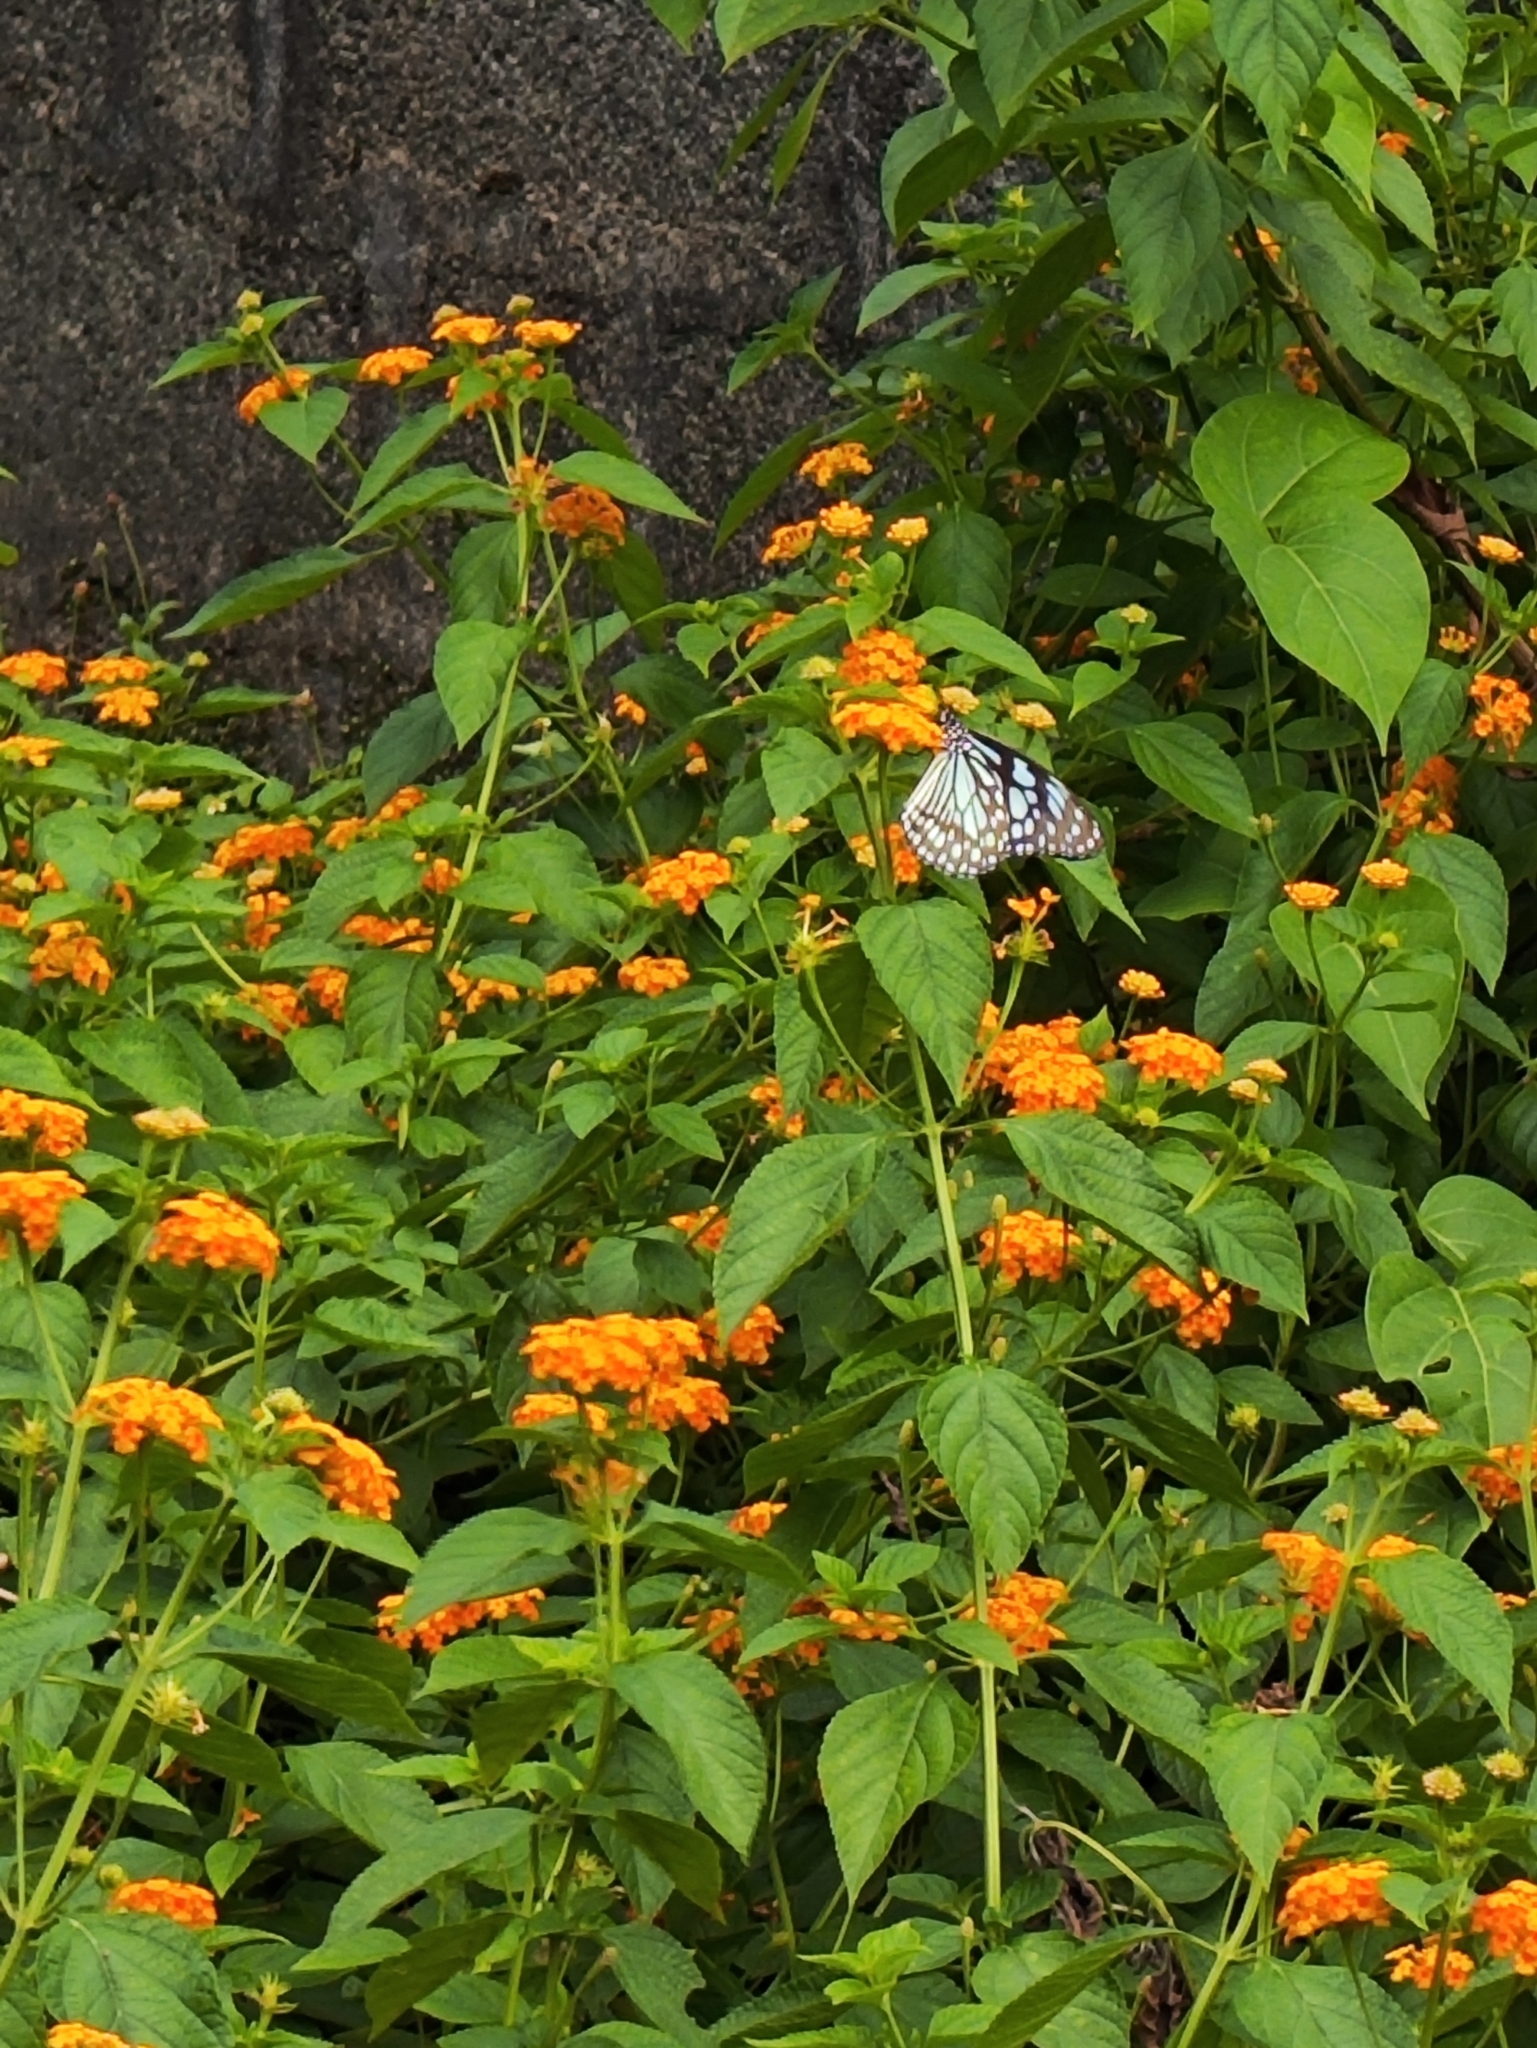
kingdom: Animalia
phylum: Arthropoda
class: Insecta
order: Lepidoptera
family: Nymphalidae
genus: Tirumala
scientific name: Tirumala limniace
